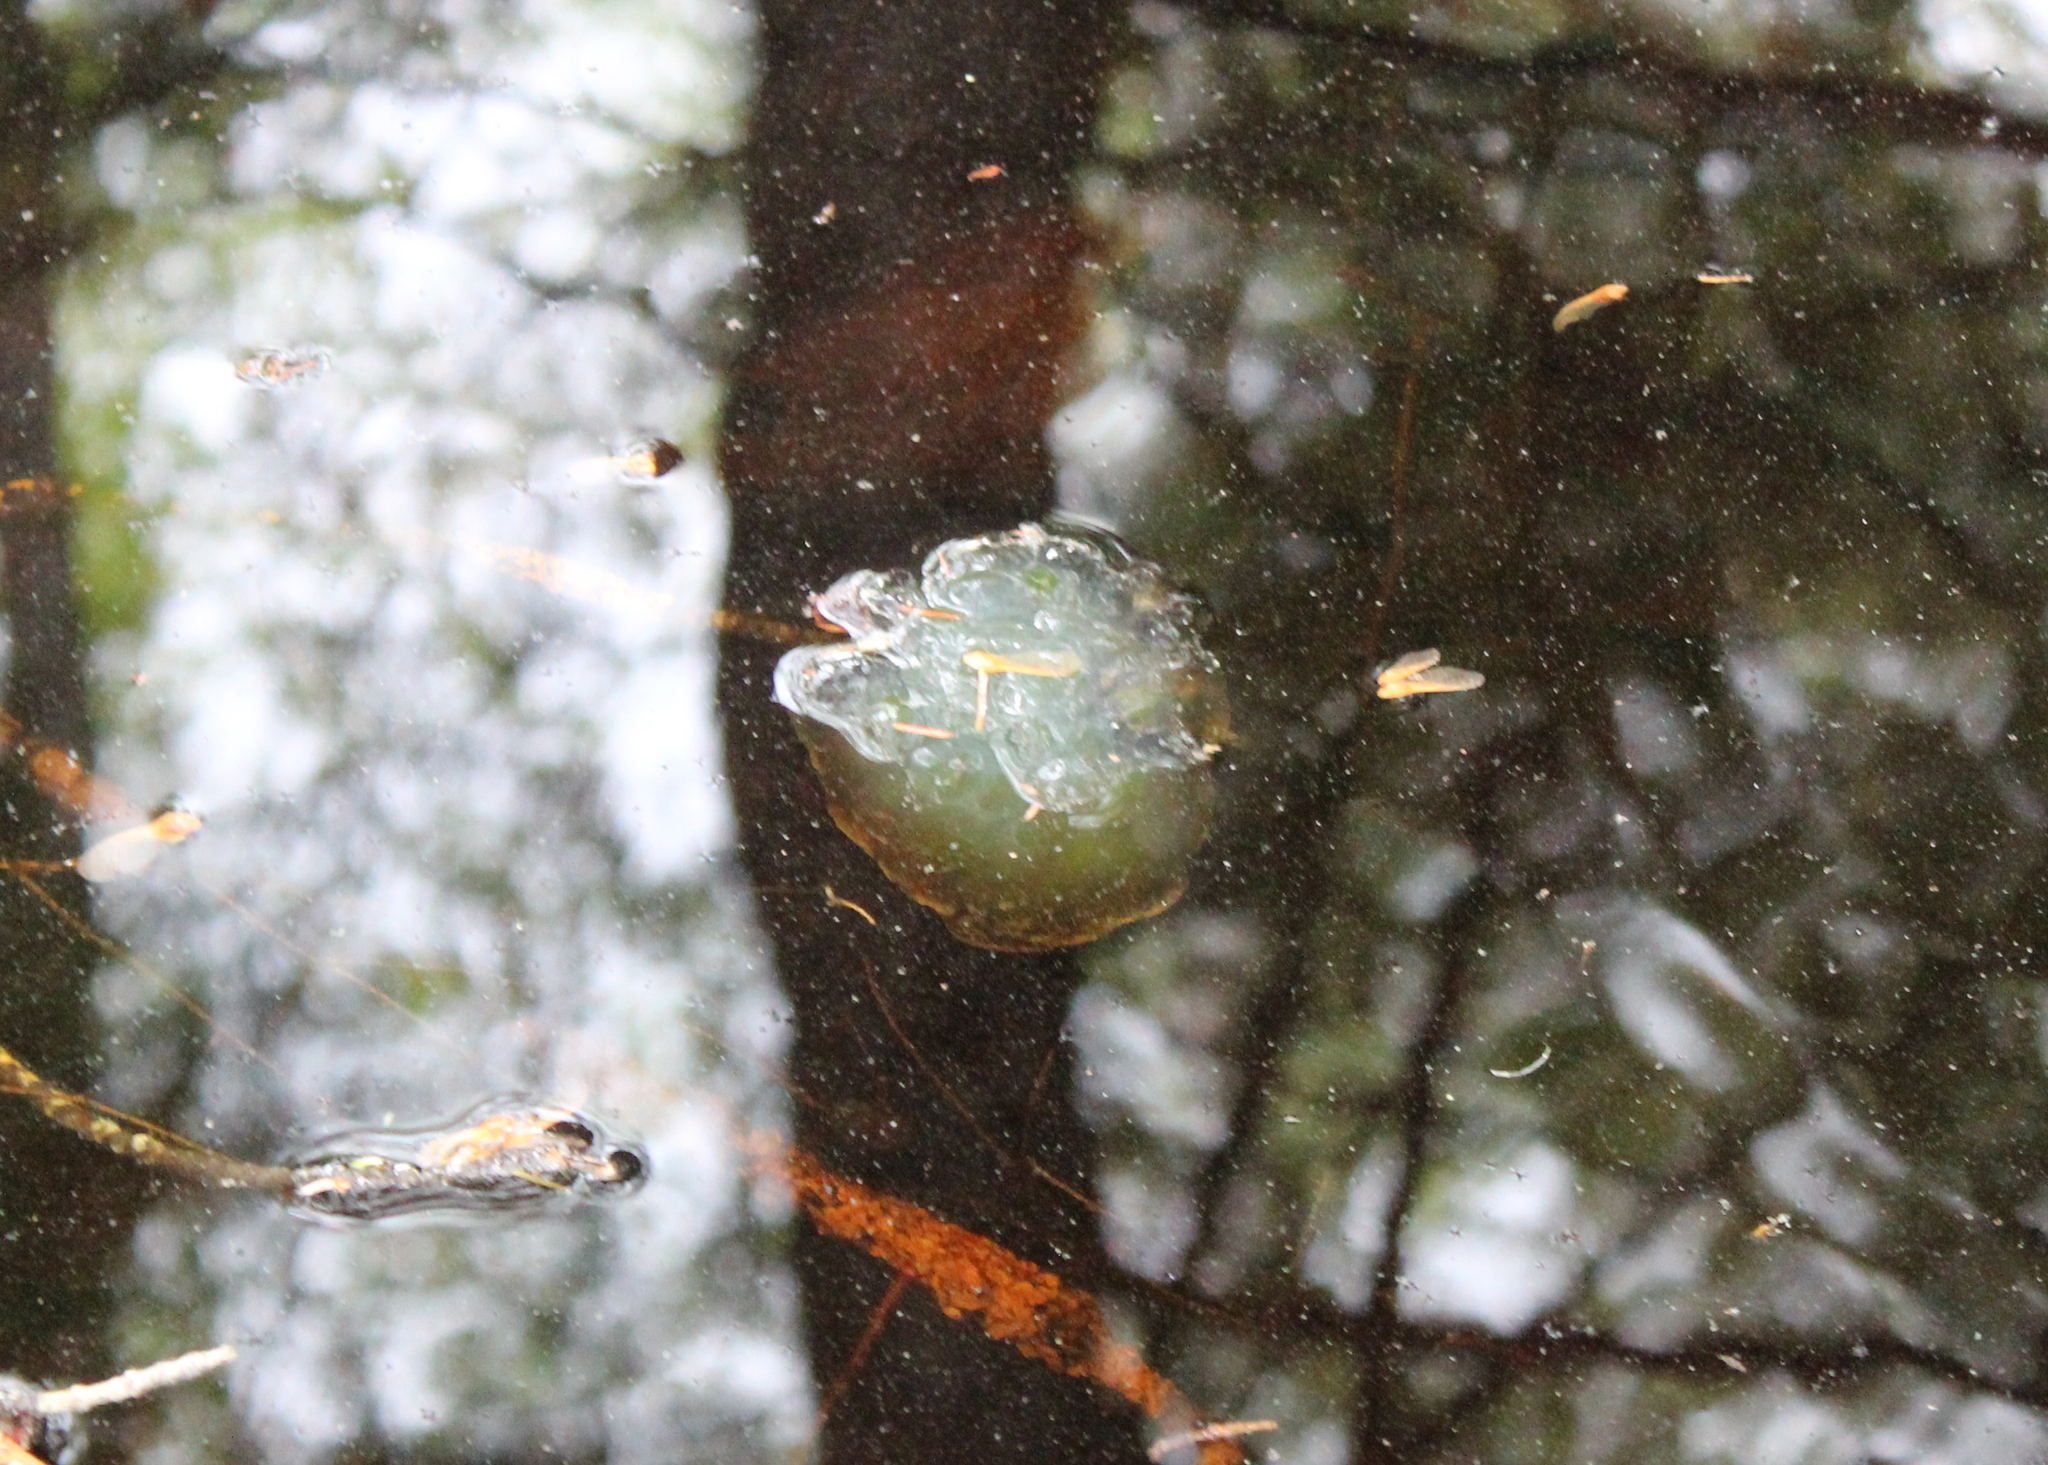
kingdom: Animalia
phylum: Chordata
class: Amphibia
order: Caudata
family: Ambystomatidae
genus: Ambystoma
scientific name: Ambystoma maculatum
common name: Spotted salamander
